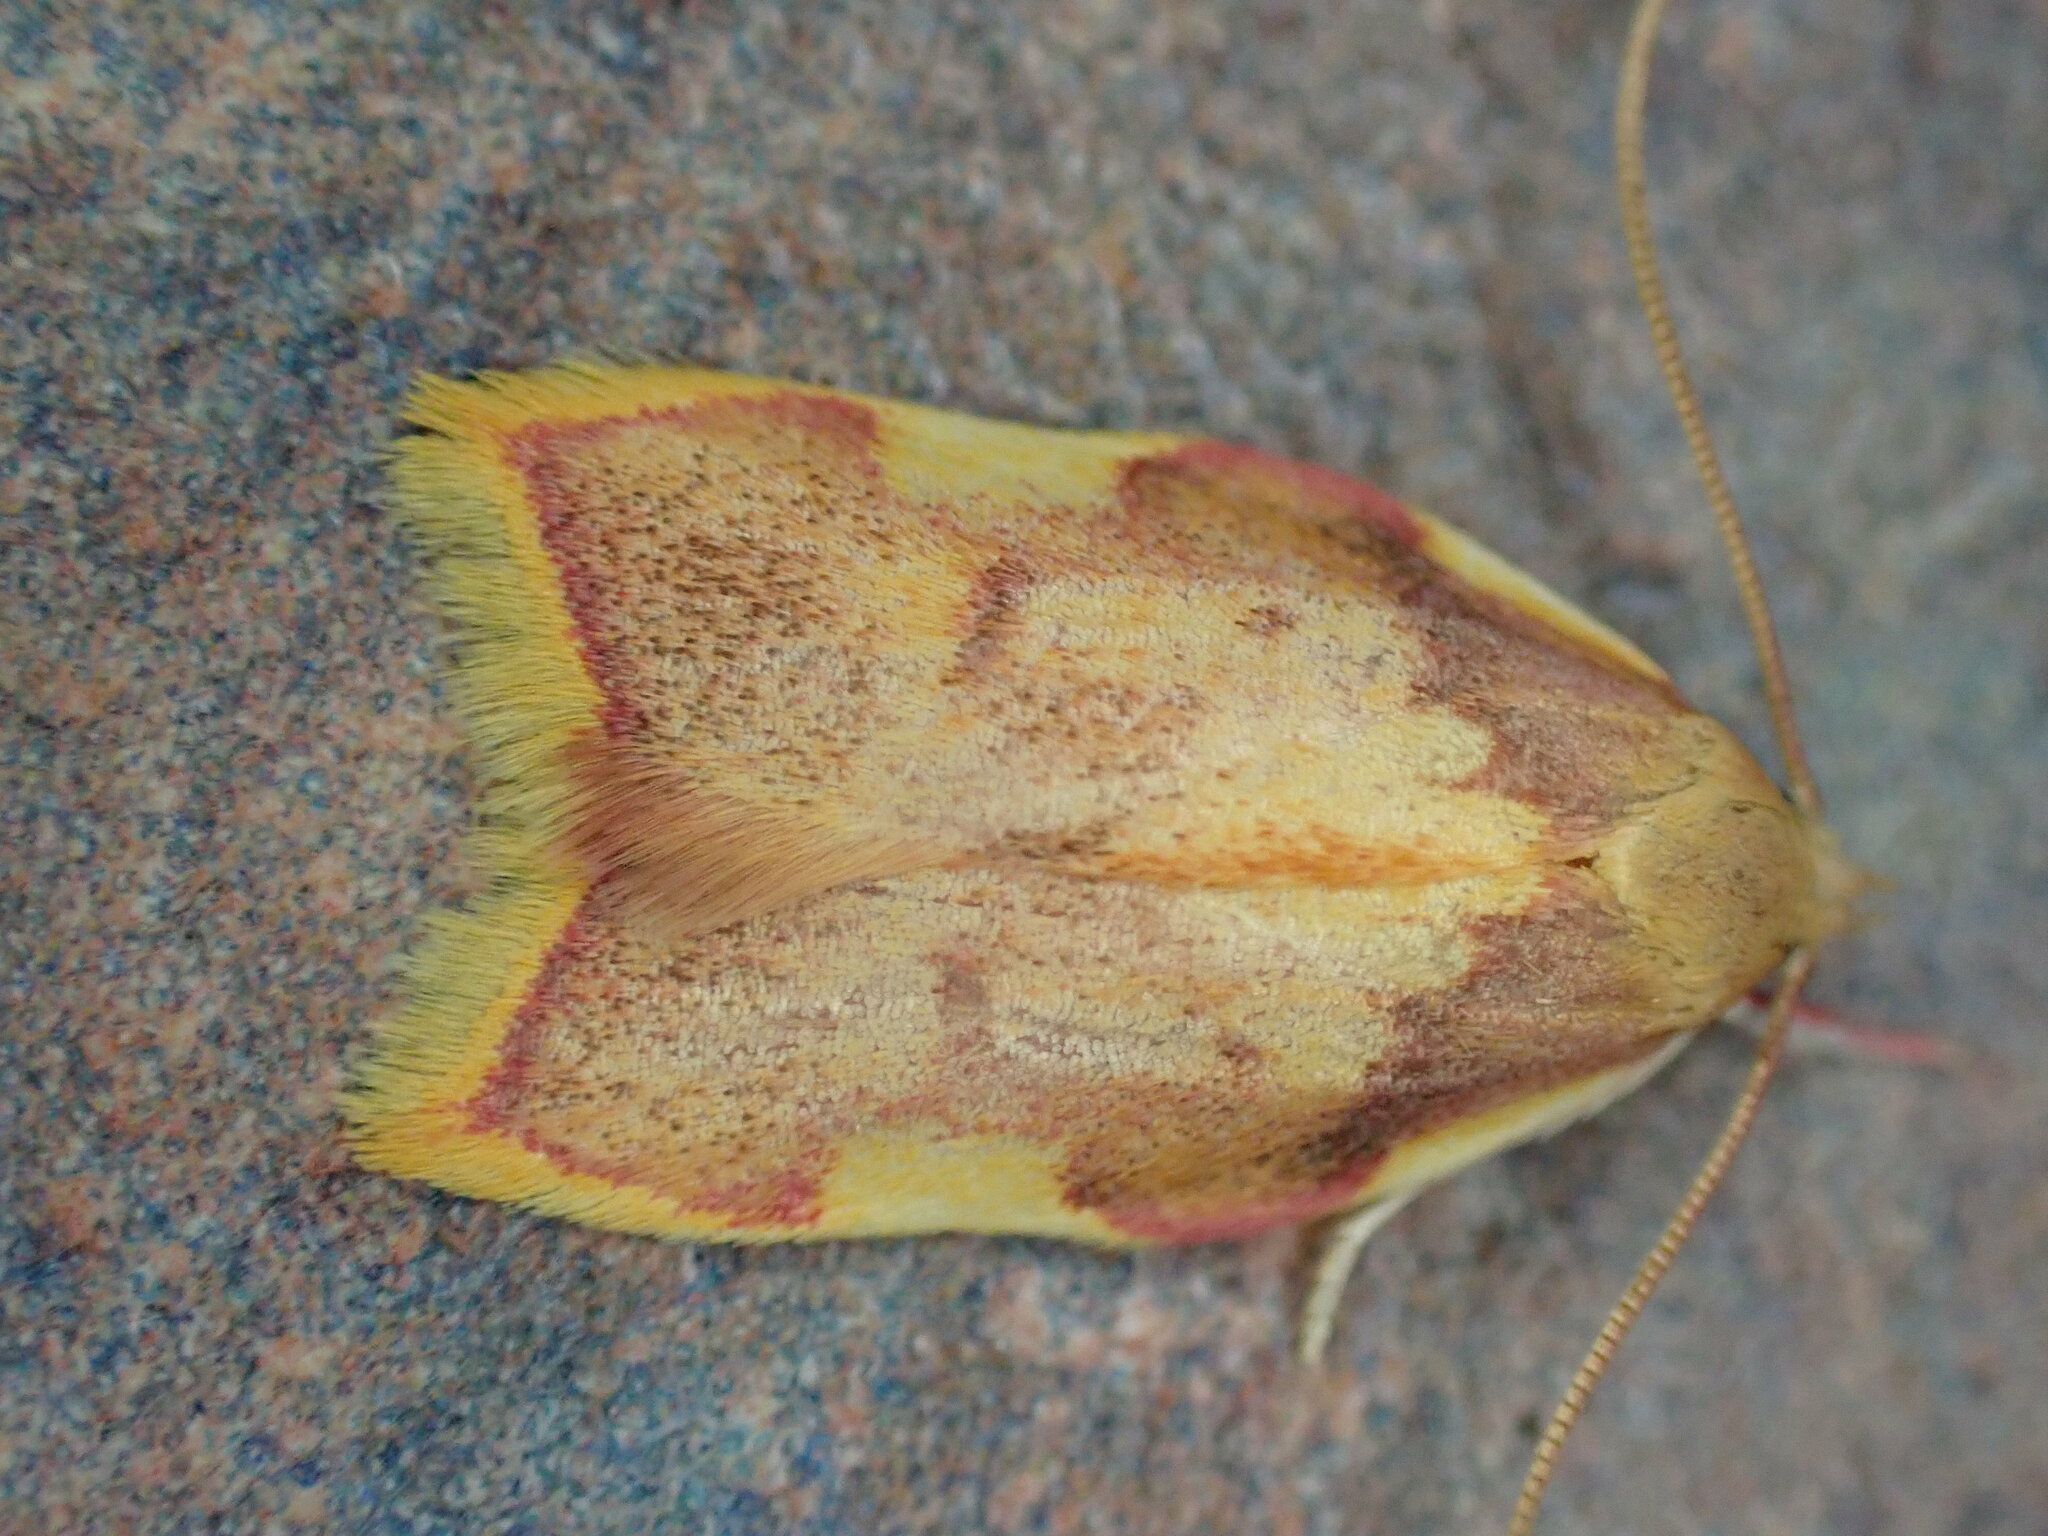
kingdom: Animalia
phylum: Arthropoda
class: Insecta
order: Lepidoptera
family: Peleopodidae
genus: Carcina
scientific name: Carcina quercana
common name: Moth
